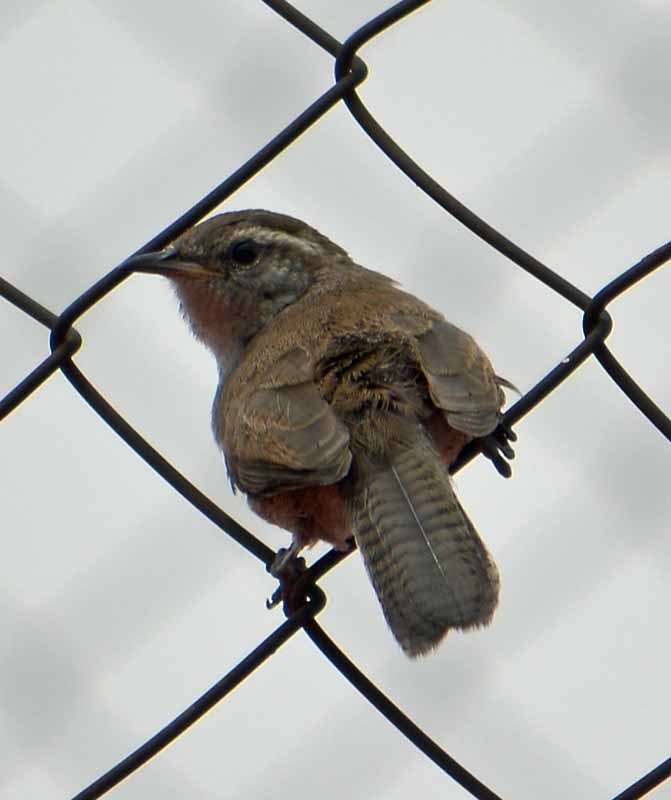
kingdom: Animalia
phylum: Chordata
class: Aves
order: Passeriformes
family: Troglodytidae
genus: Thryomanes
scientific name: Thryomanes bewickii
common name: Bewick's wren
